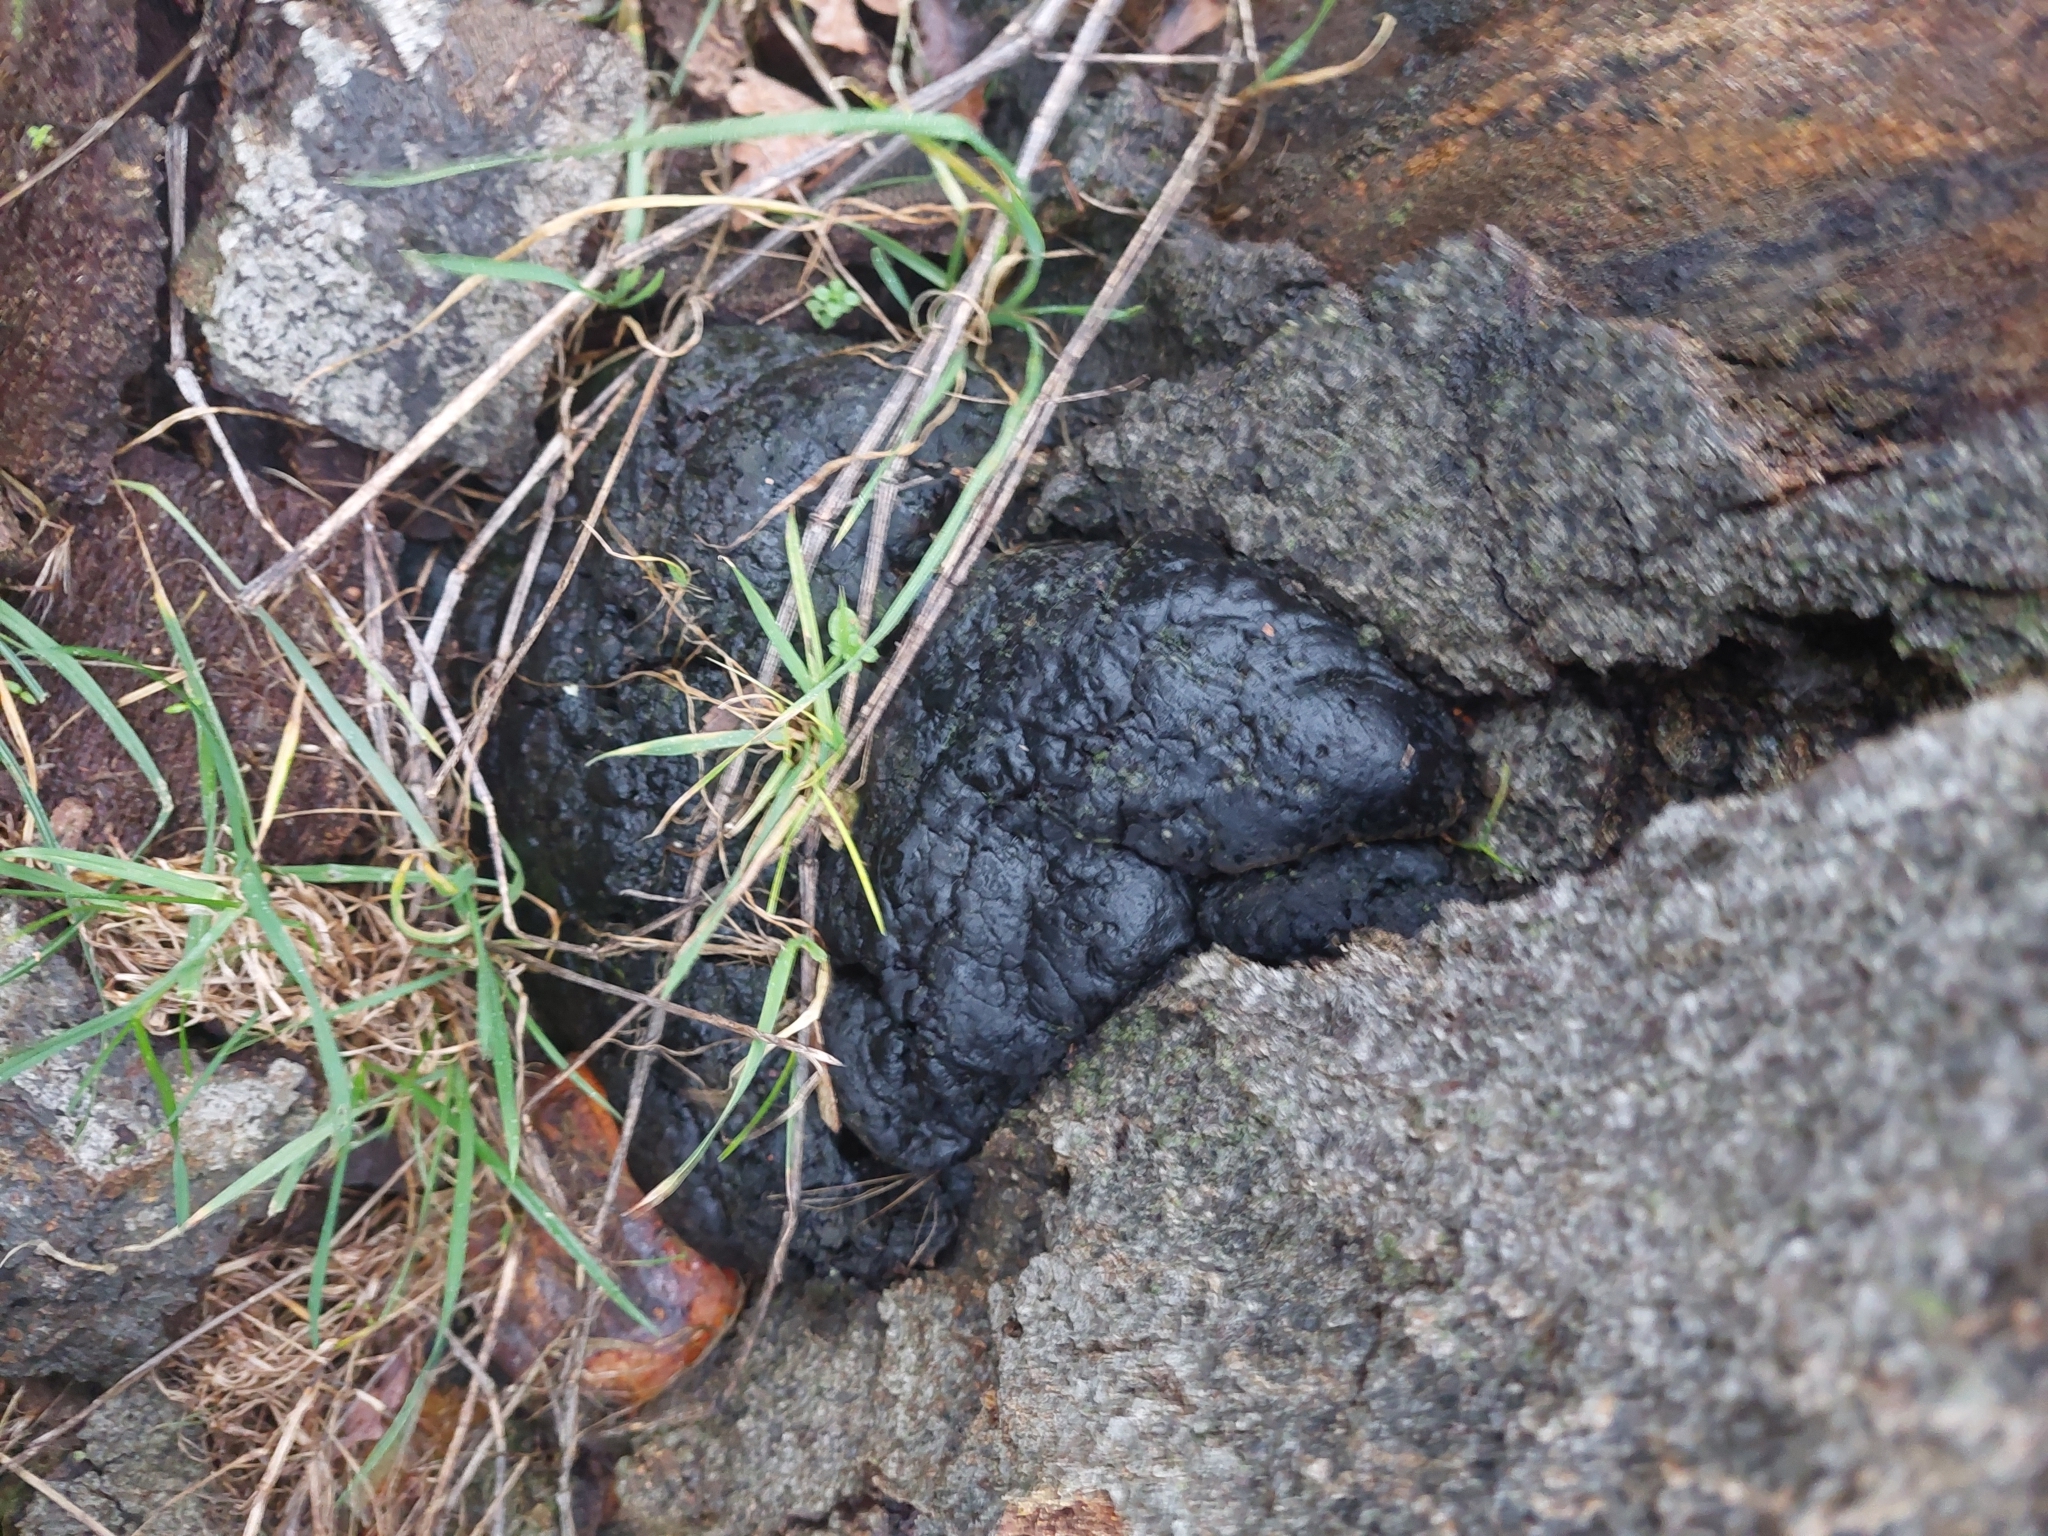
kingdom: Fungi
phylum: Ascomycota
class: Sordariomycetes
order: Xylariales
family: Hypoxylaceae
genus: Daldinia
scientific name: Daldinia concentrica
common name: Cramp balls
